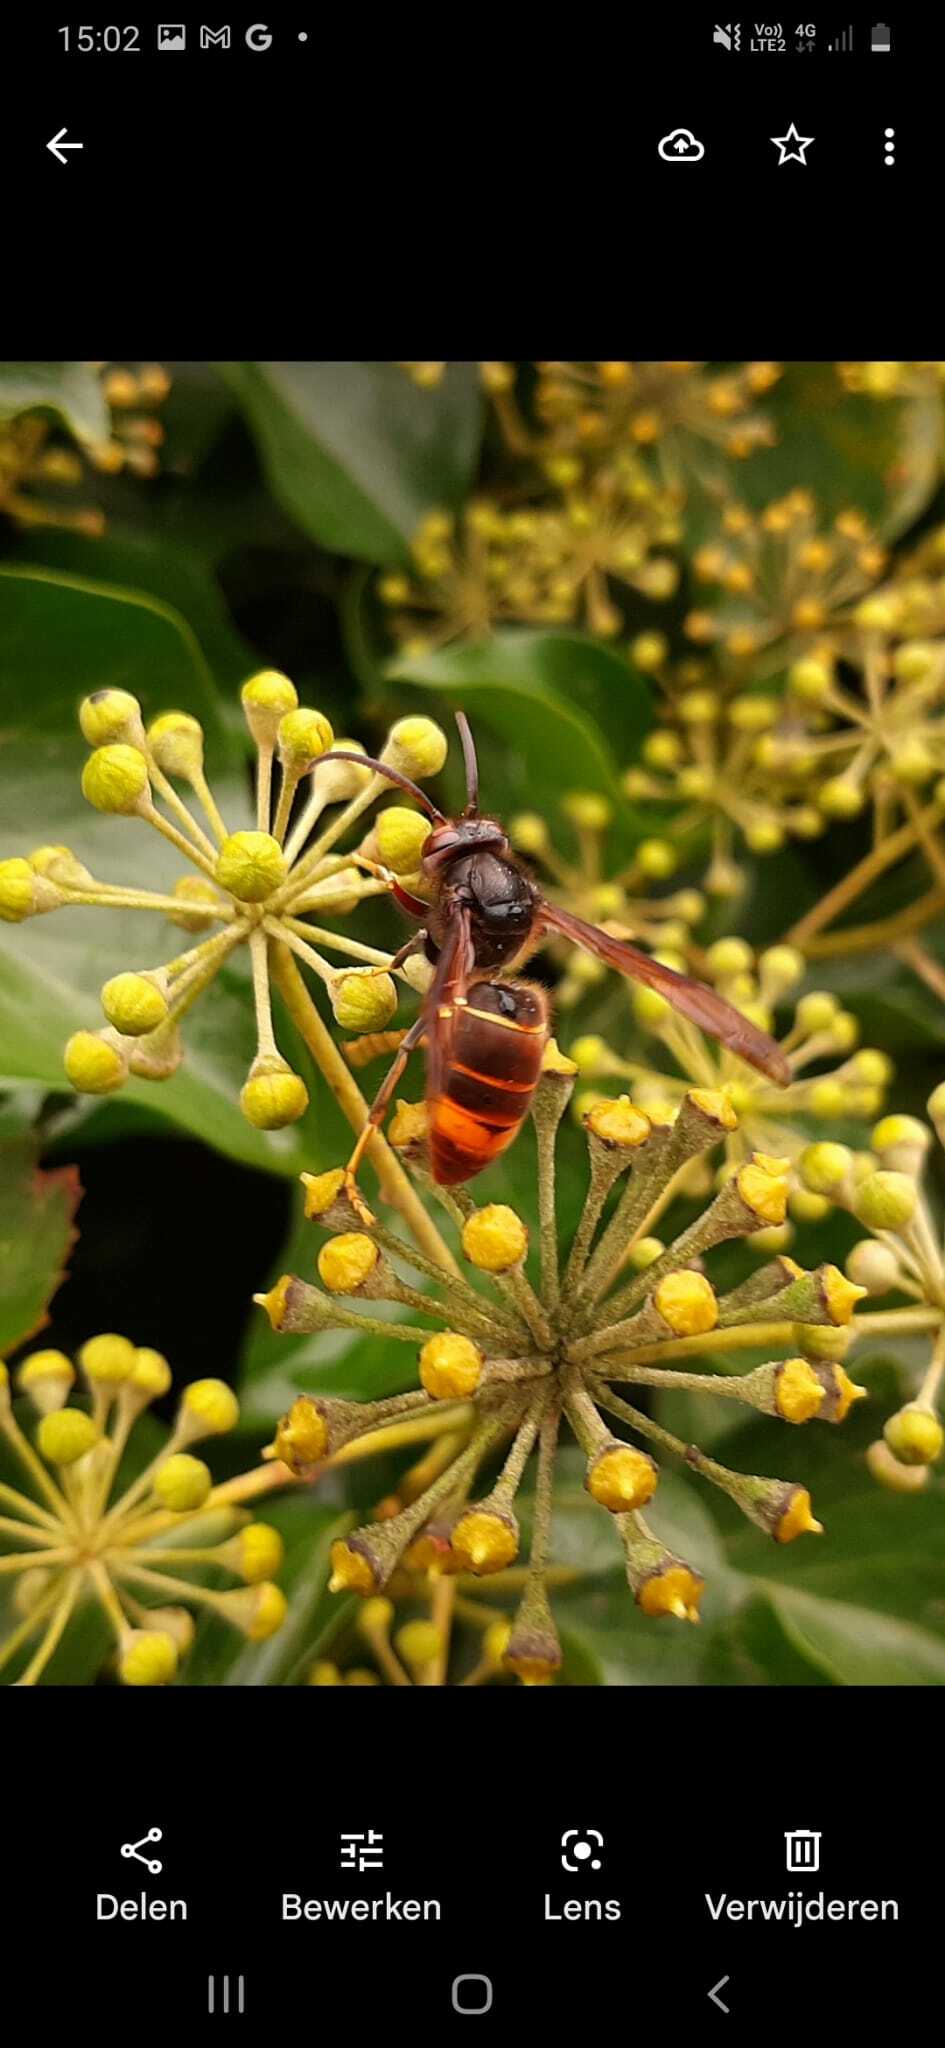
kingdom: Animalia
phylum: Arthropoda
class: Insecta
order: Hymenoptera
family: Vespidae
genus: Vespa
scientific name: Vespa velutina
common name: Asian hornet
